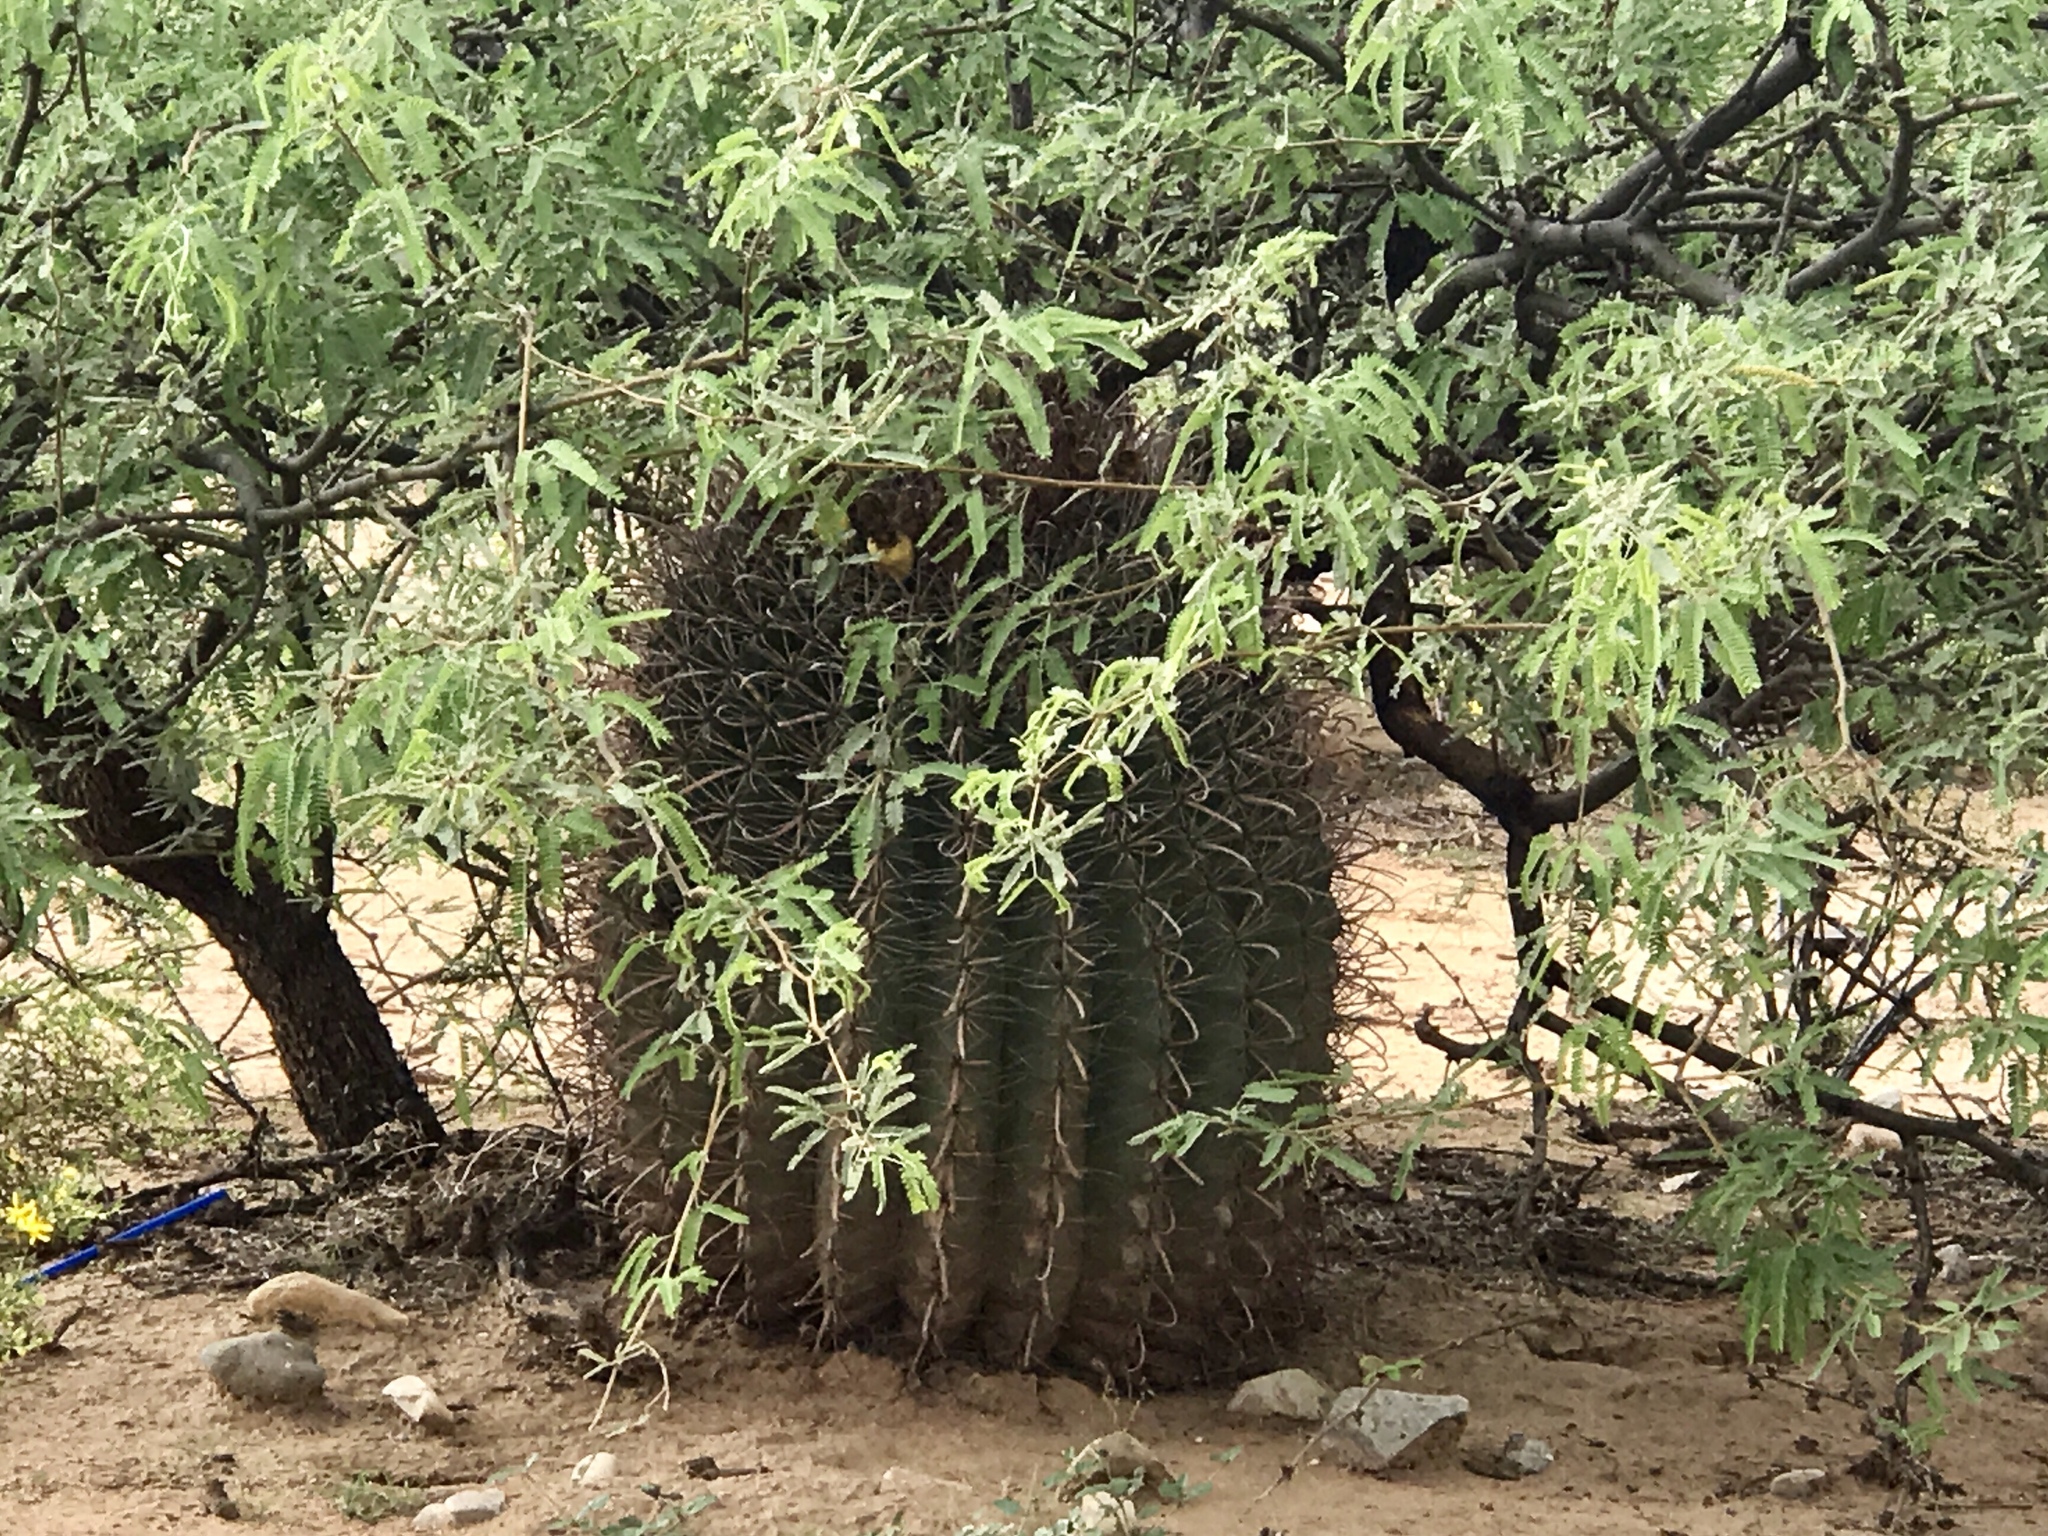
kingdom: Plantae
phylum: Tracheophyta
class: Magnoliopsida
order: Caryophyllales
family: Cactaceae
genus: Ferocactus
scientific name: Ferocactus wislizeni
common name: Candy barrel cactus
